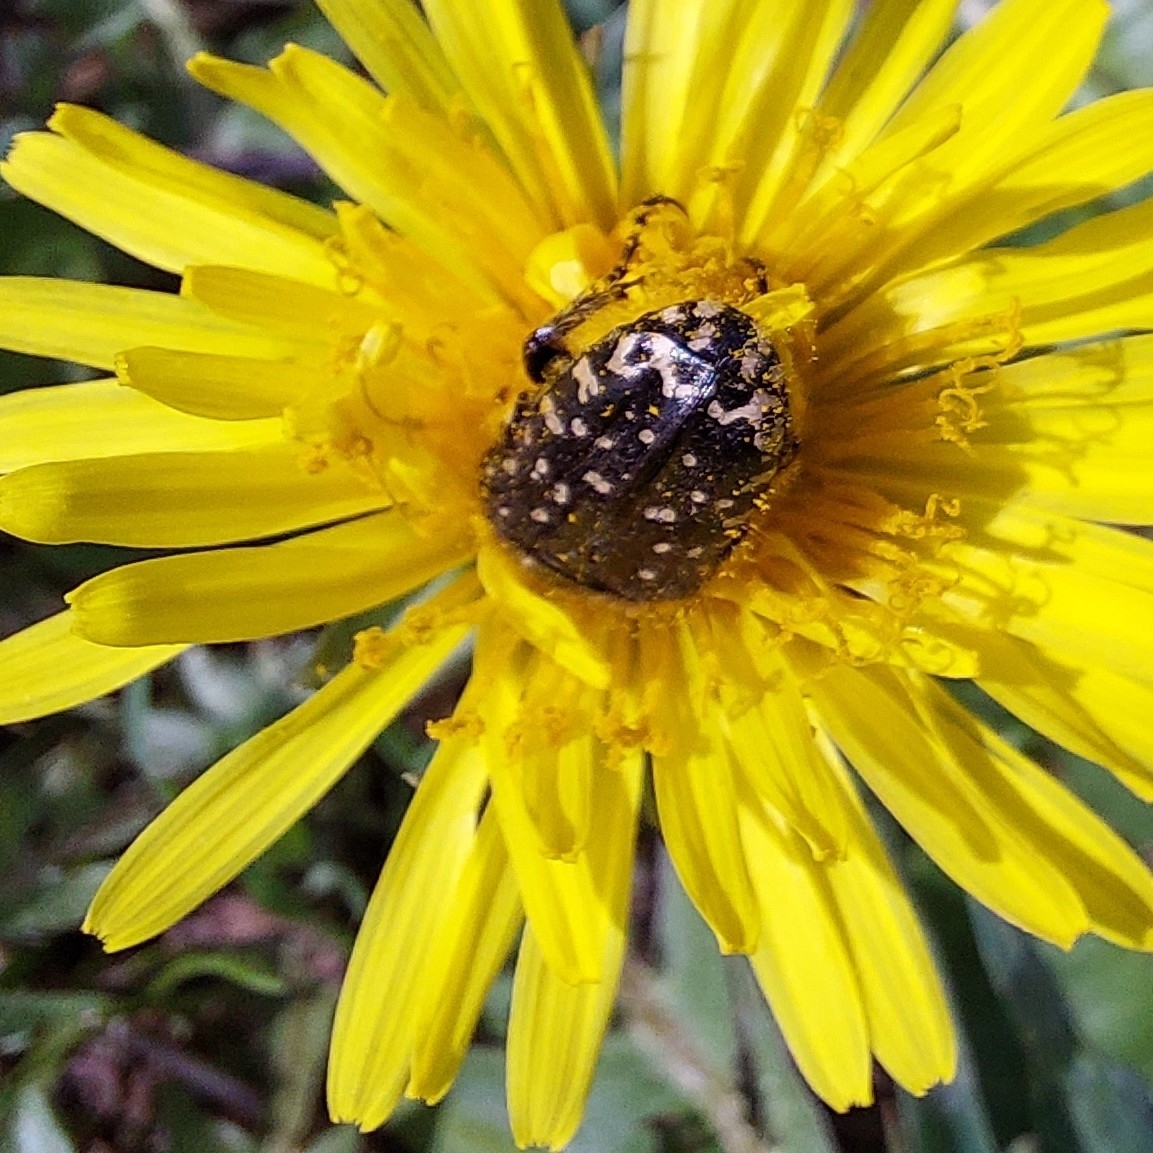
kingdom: Animalia
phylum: Arthropoda
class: Insecta
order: Coleoptera
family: Scarabaeidae
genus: Oxythyrea
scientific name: Oxythyrea funesta
